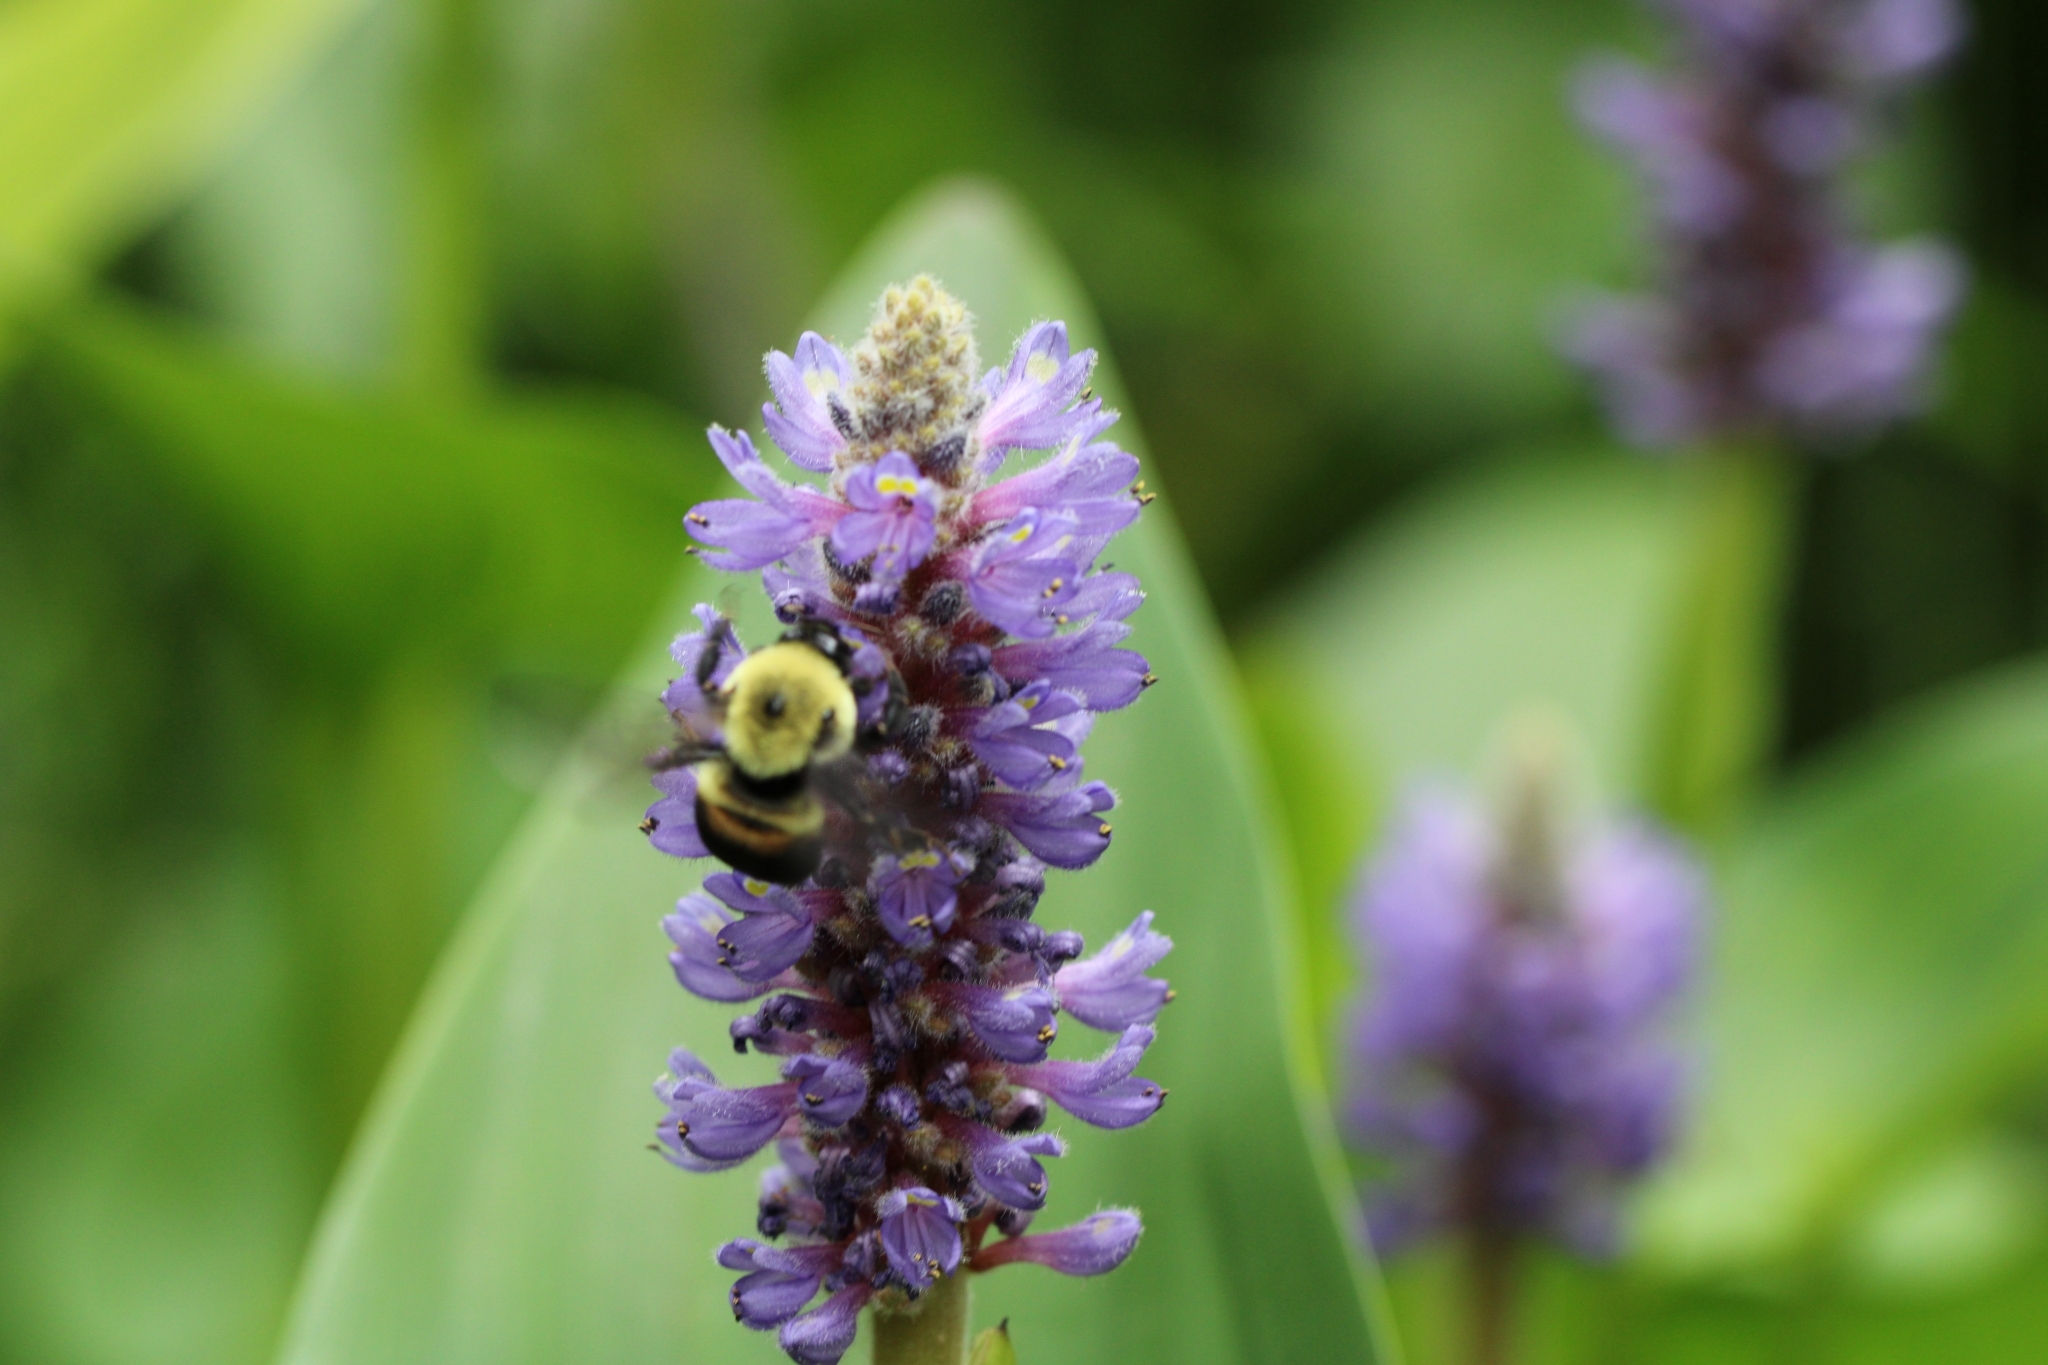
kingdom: Animalia
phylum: Arthropoda
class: Insecta
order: Hymenoptera
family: Apidae
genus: Bombus
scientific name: Bombus griseocollis
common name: Brown-belted bumble bee
